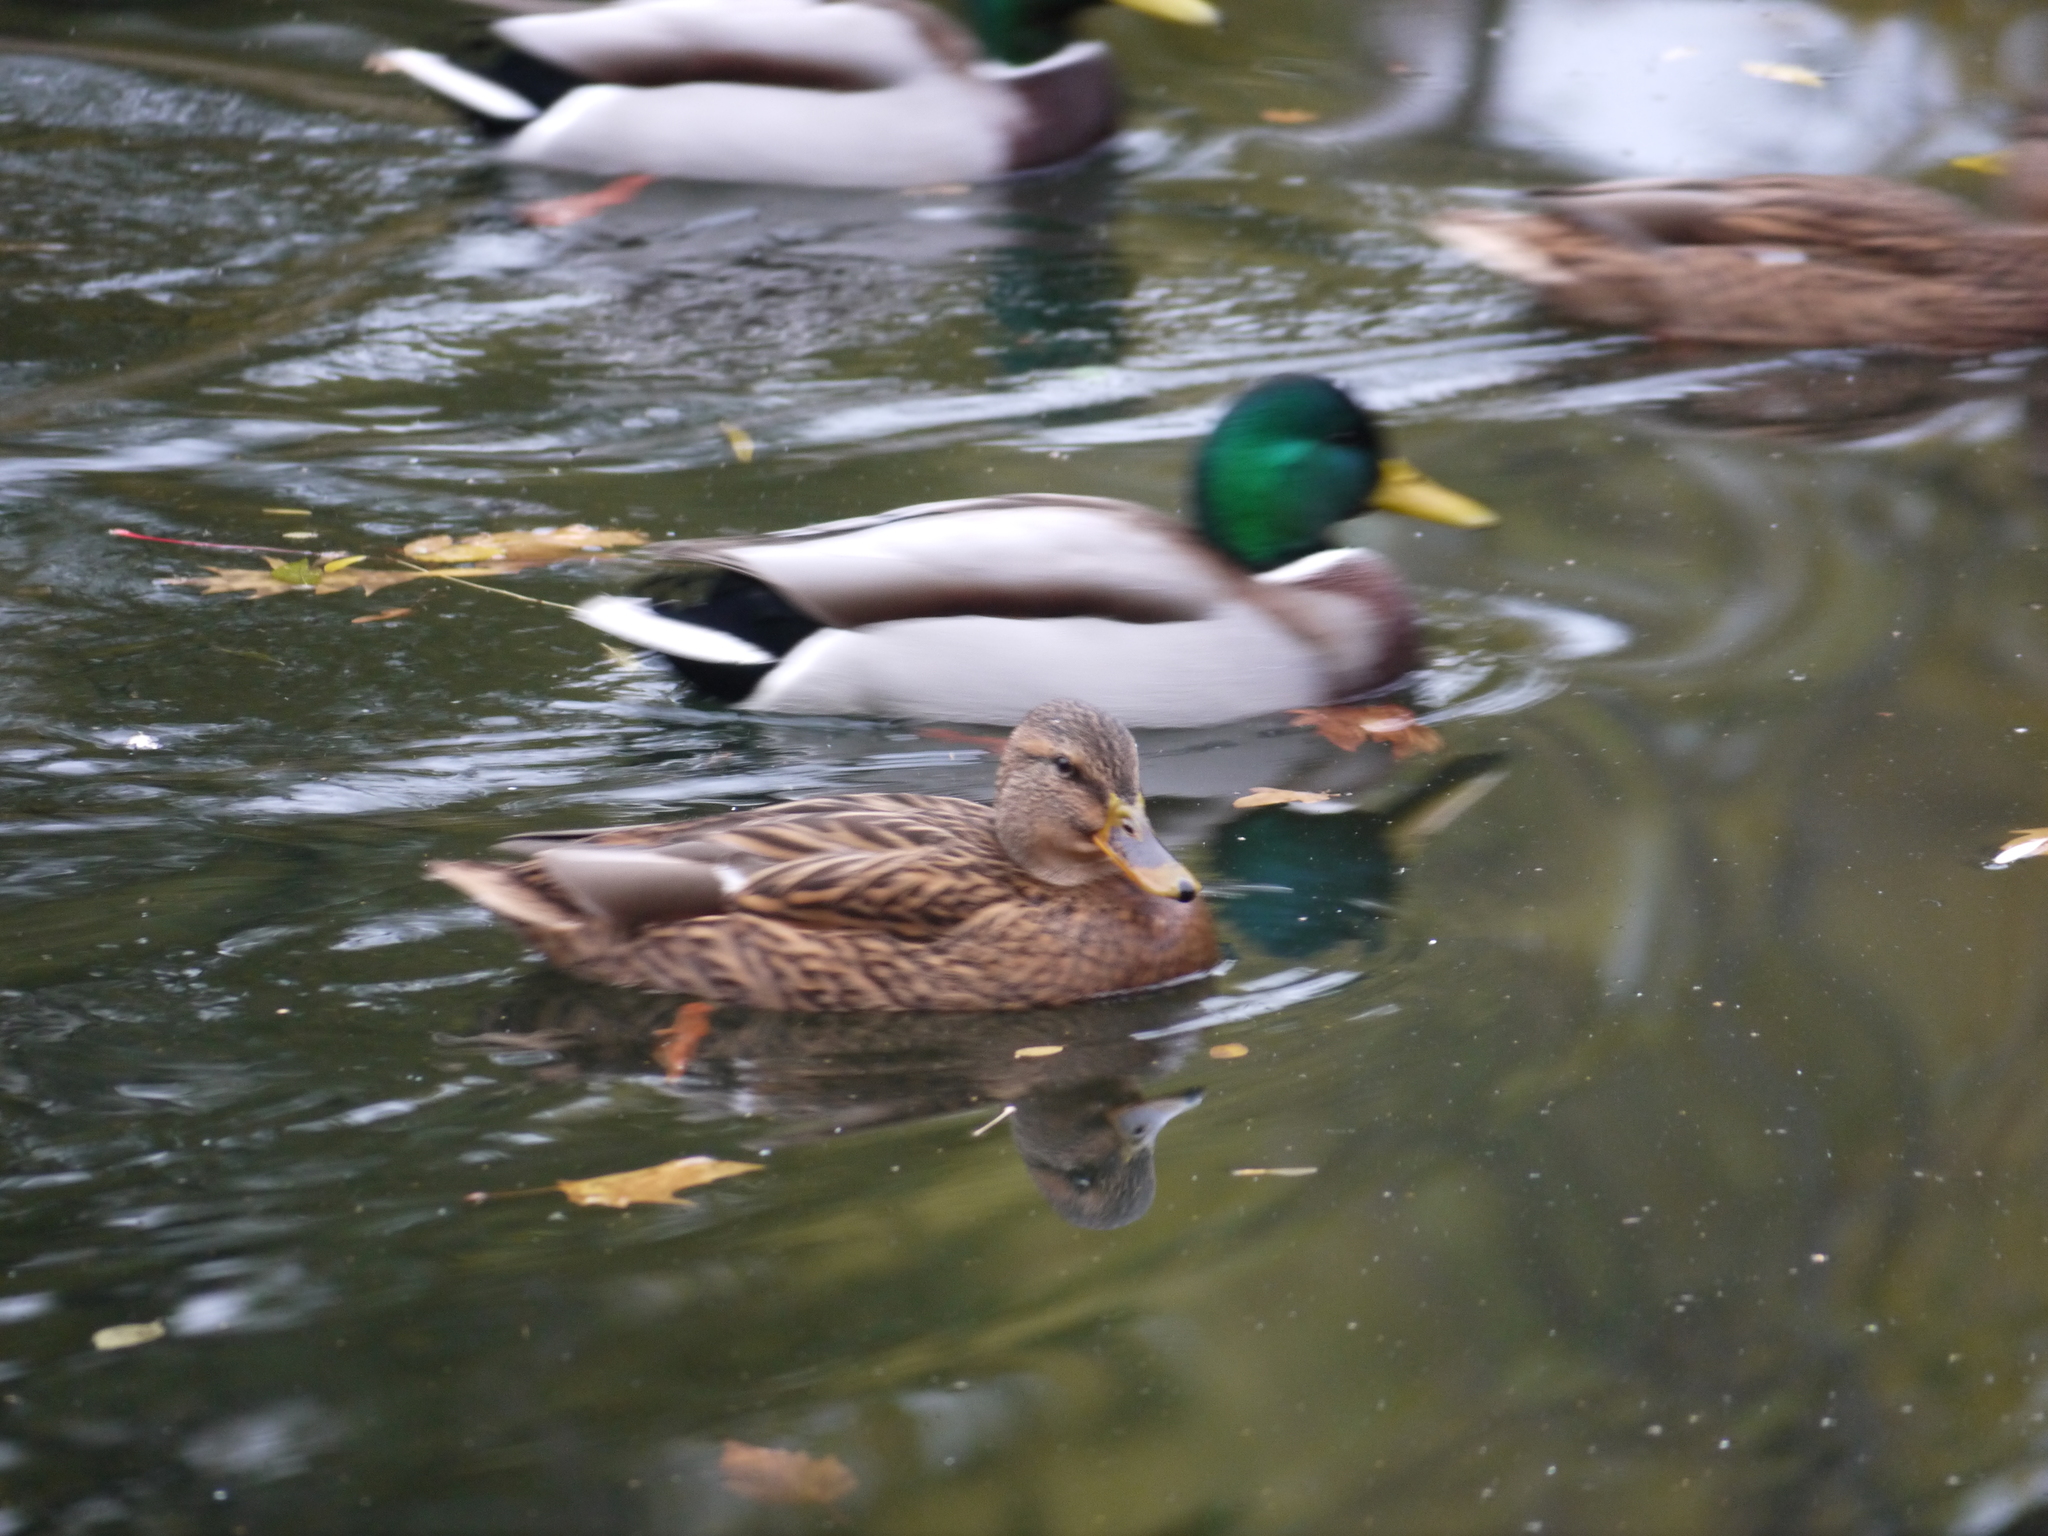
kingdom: Animalia
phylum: Chordata
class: Aves
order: Anseriformes
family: Anatidae
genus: Anas
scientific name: Anas platyrhynchos
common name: Mallard
